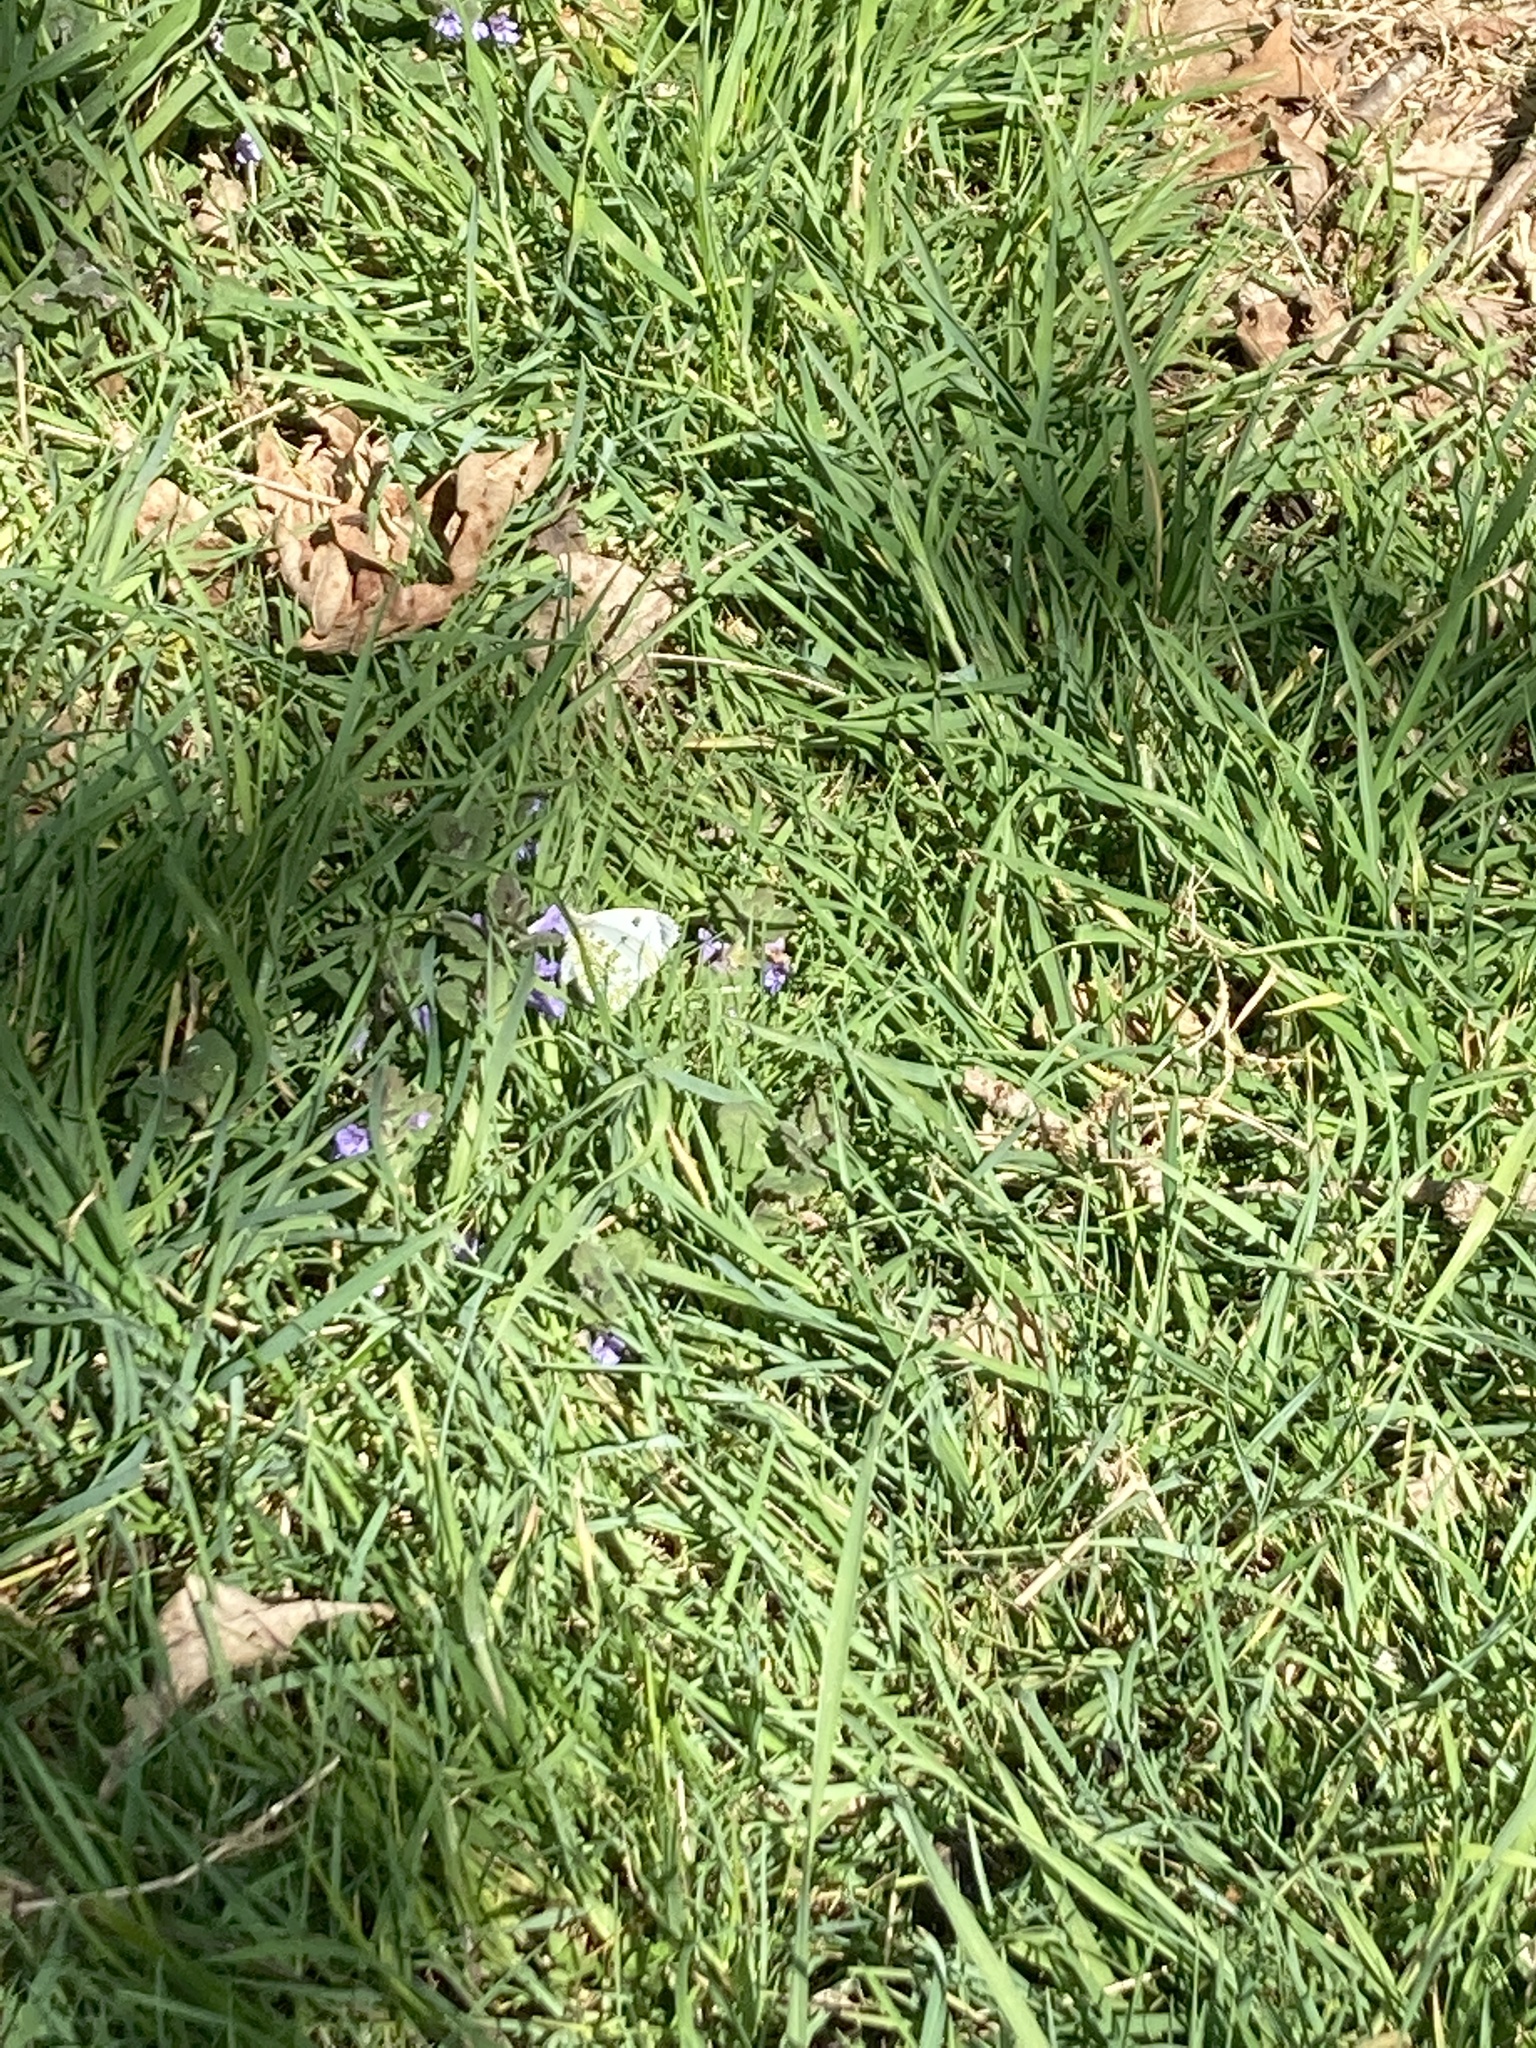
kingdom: Animalia
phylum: Arthropoda
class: Insecta
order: Lepidoptera
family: Pieridae
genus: Anthocharis
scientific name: Anthocharis cardamines
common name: Orange-tip
